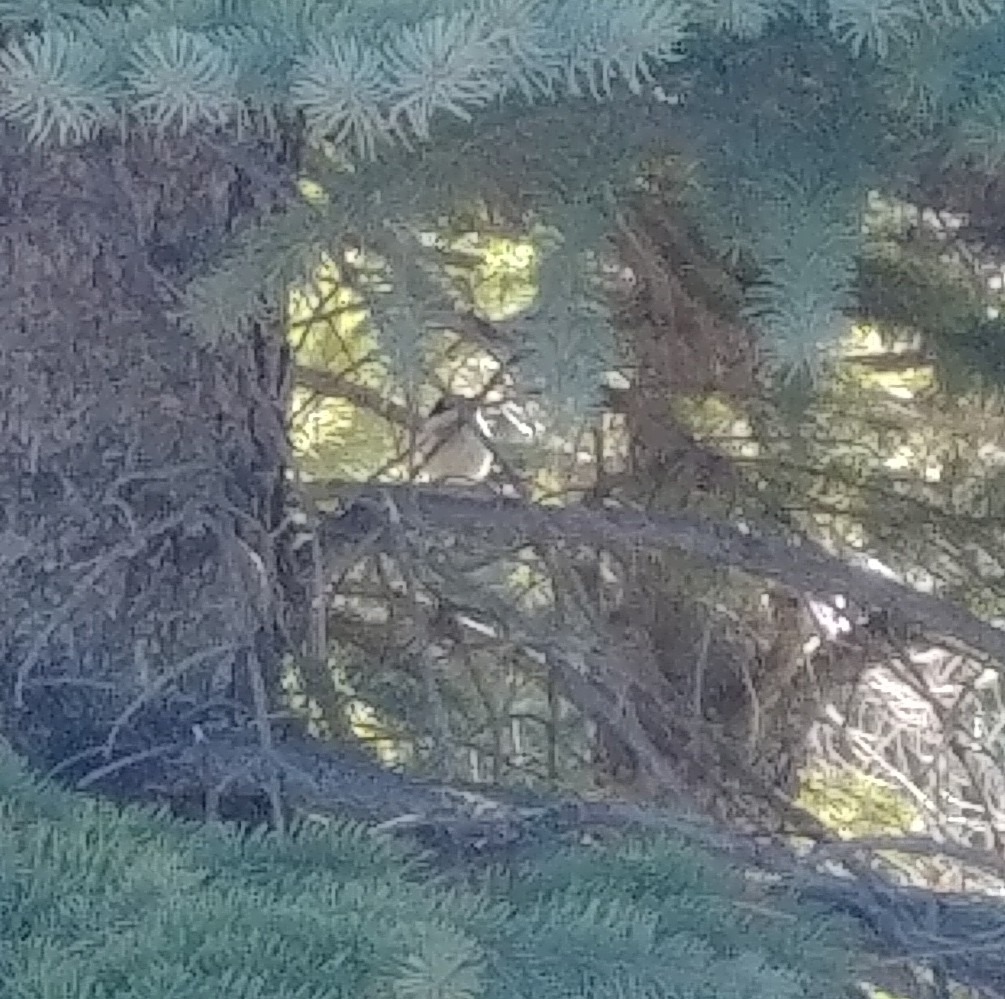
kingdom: Animalia
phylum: Chordata
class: Aves
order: Passeriformes
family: Paridae
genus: Poecile
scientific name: Poecile atricapillus
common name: Black-capped chickadee
